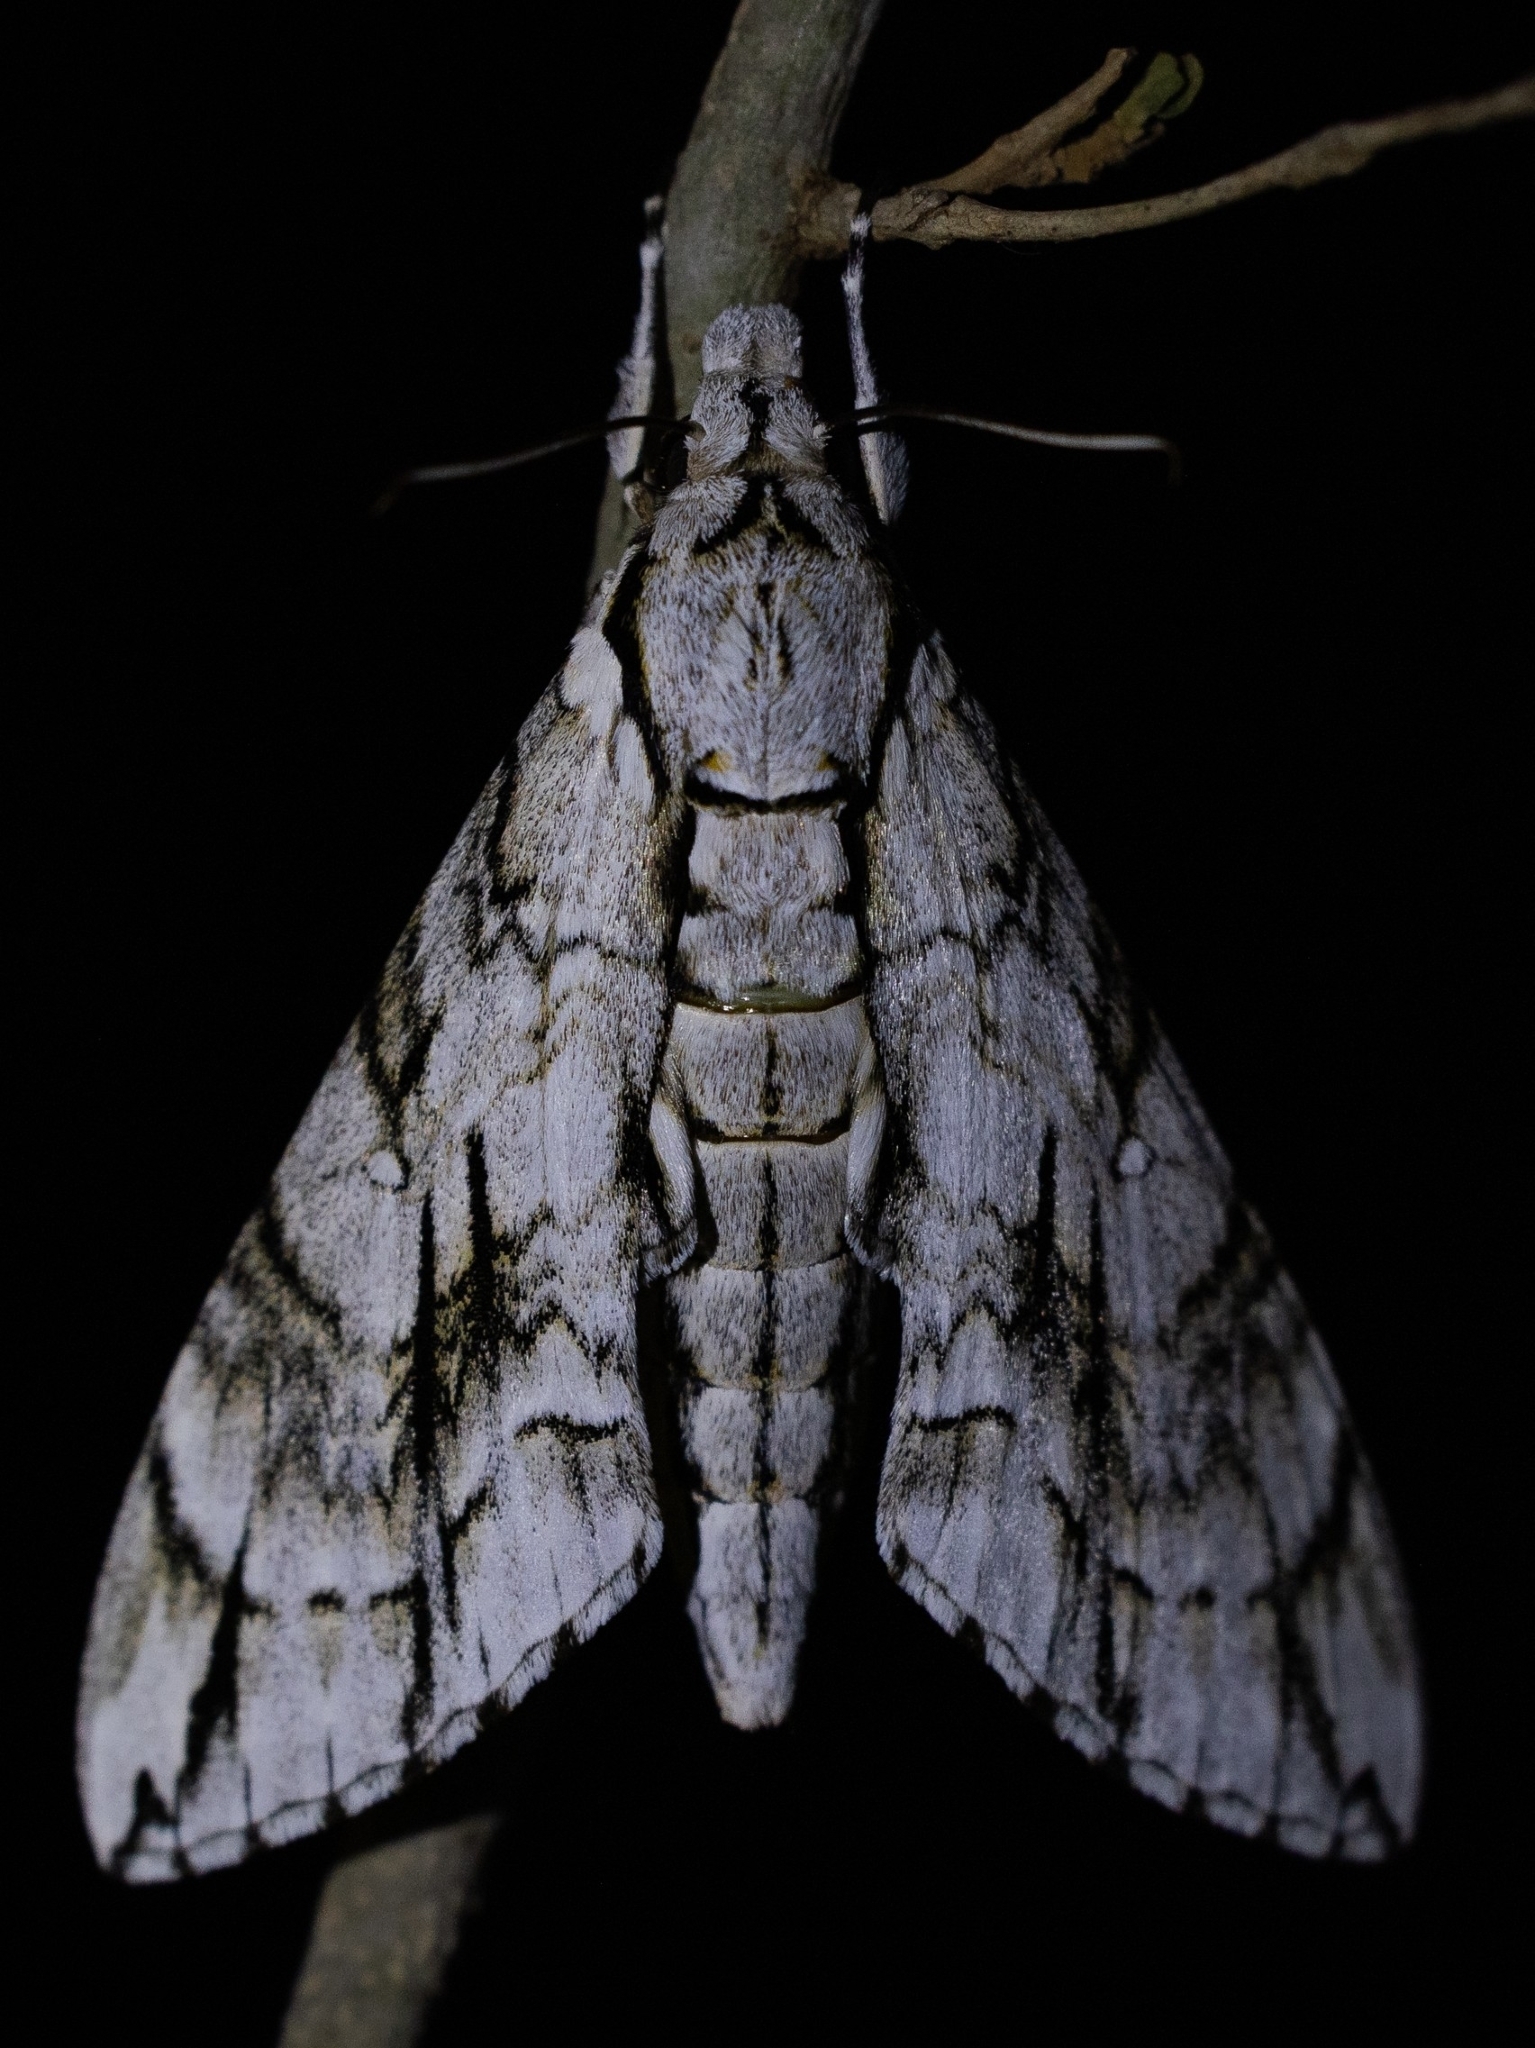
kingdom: Animalia
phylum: Arthropoda
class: Insecta
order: Lepidoptera
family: Sphingidae
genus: Panogena
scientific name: Panogena jasmini
